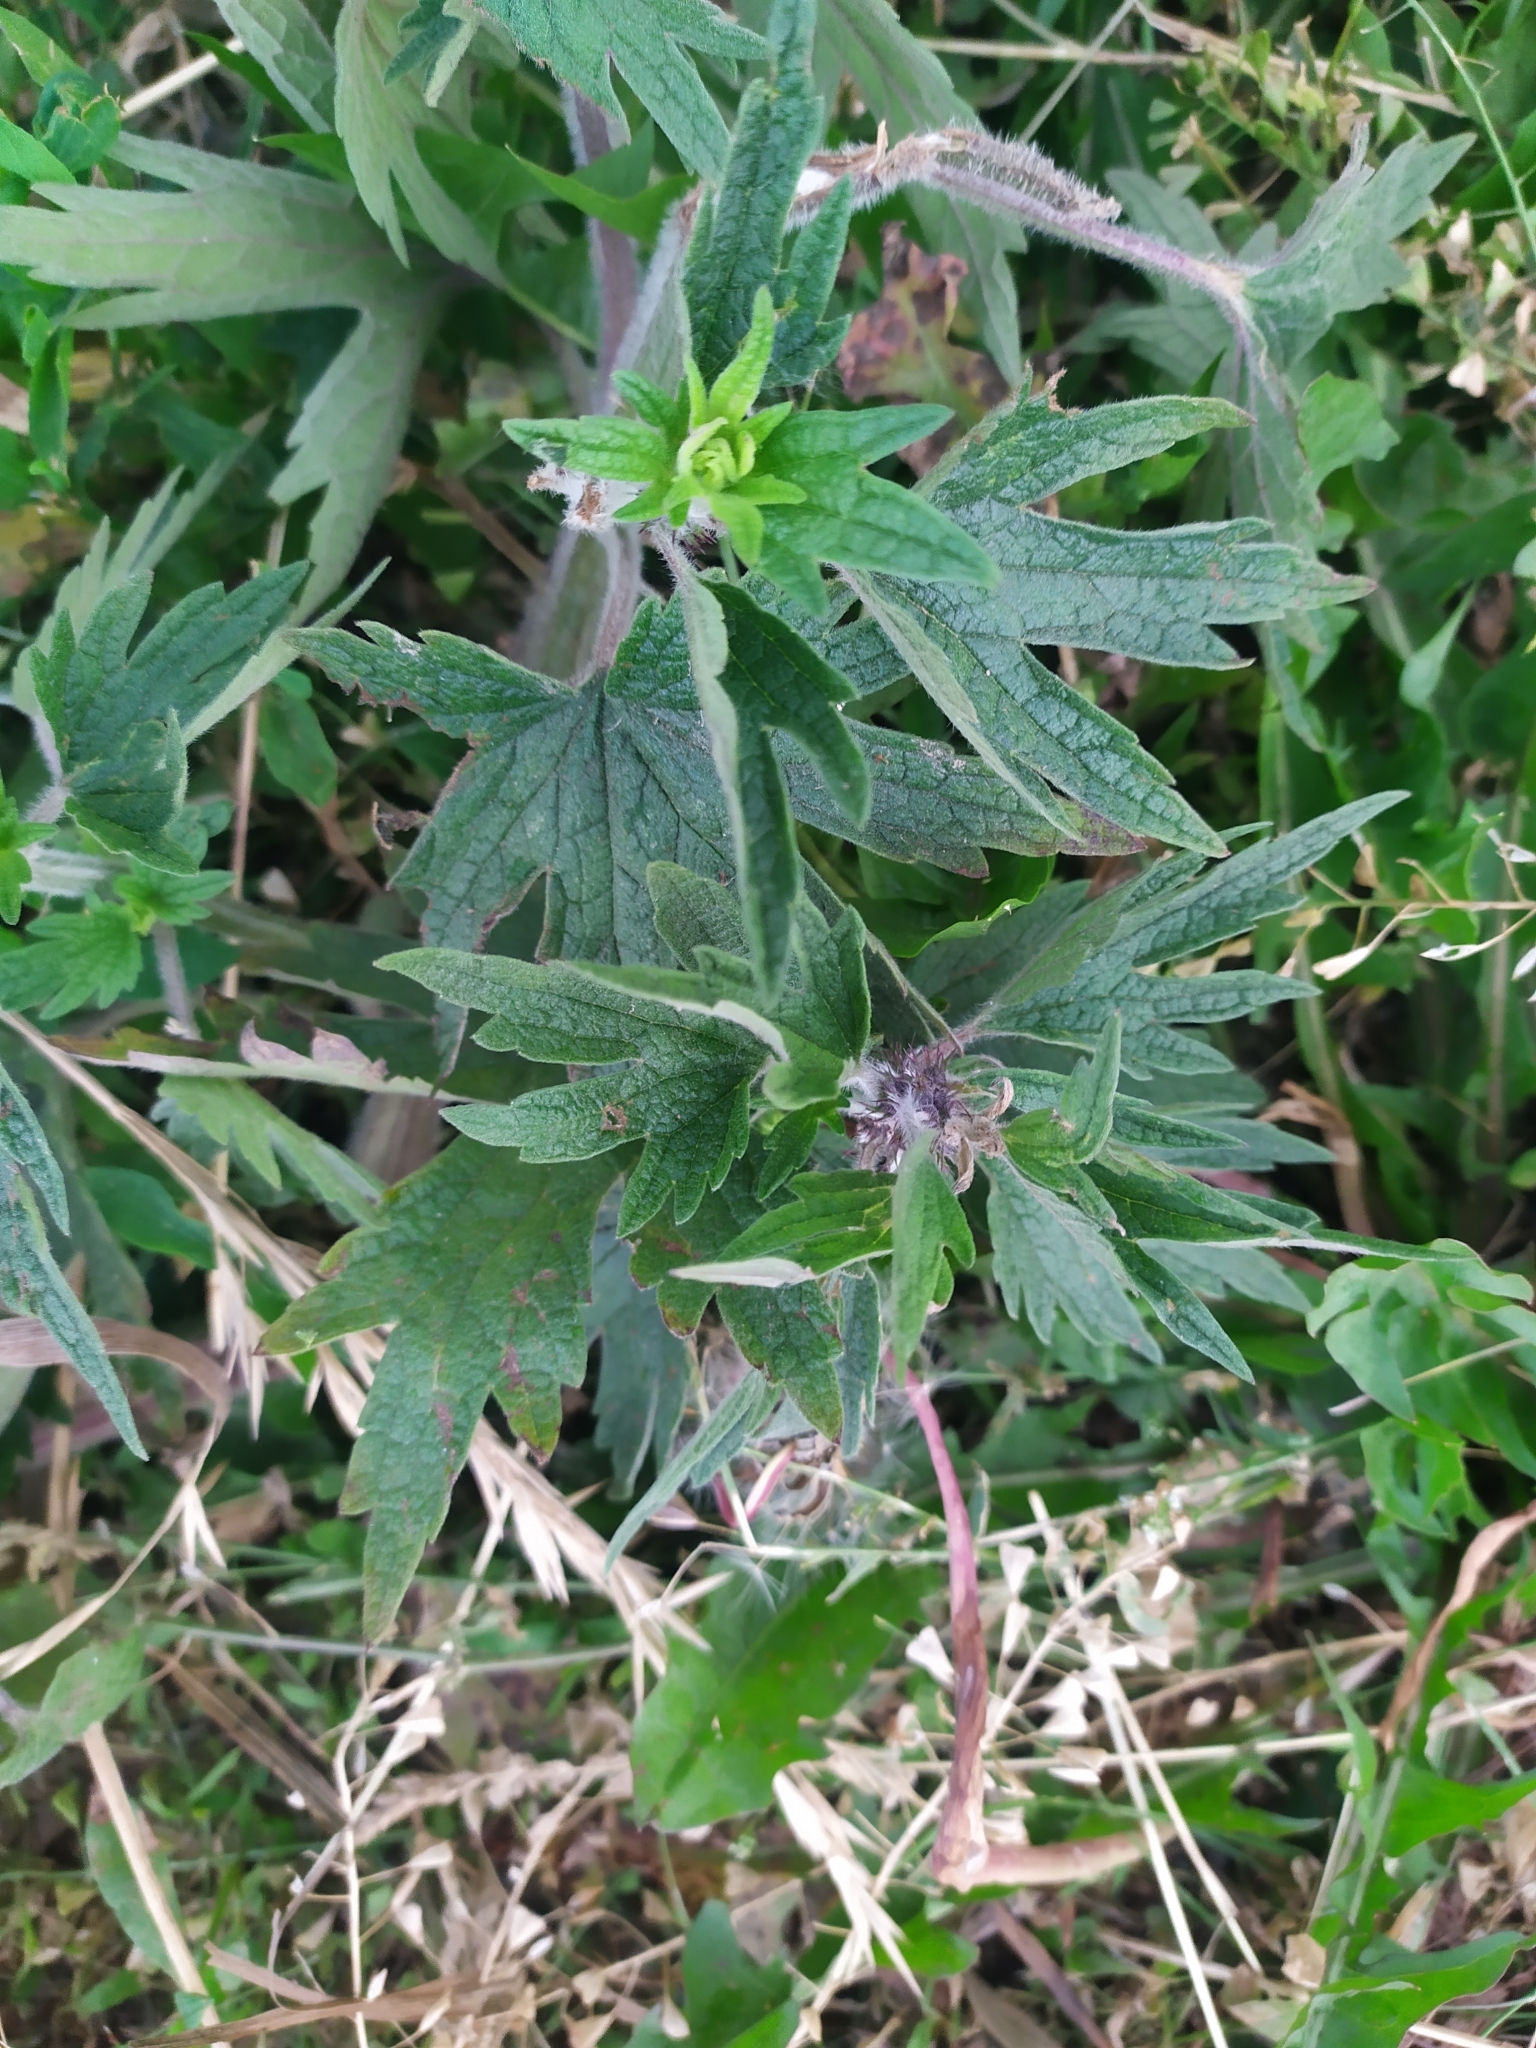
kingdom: Plantae
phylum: Tracheophyta
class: Magnoliopsida
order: Lamiales
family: Lamiaceae
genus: Leonurus
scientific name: Leonurus quinquelobatus
